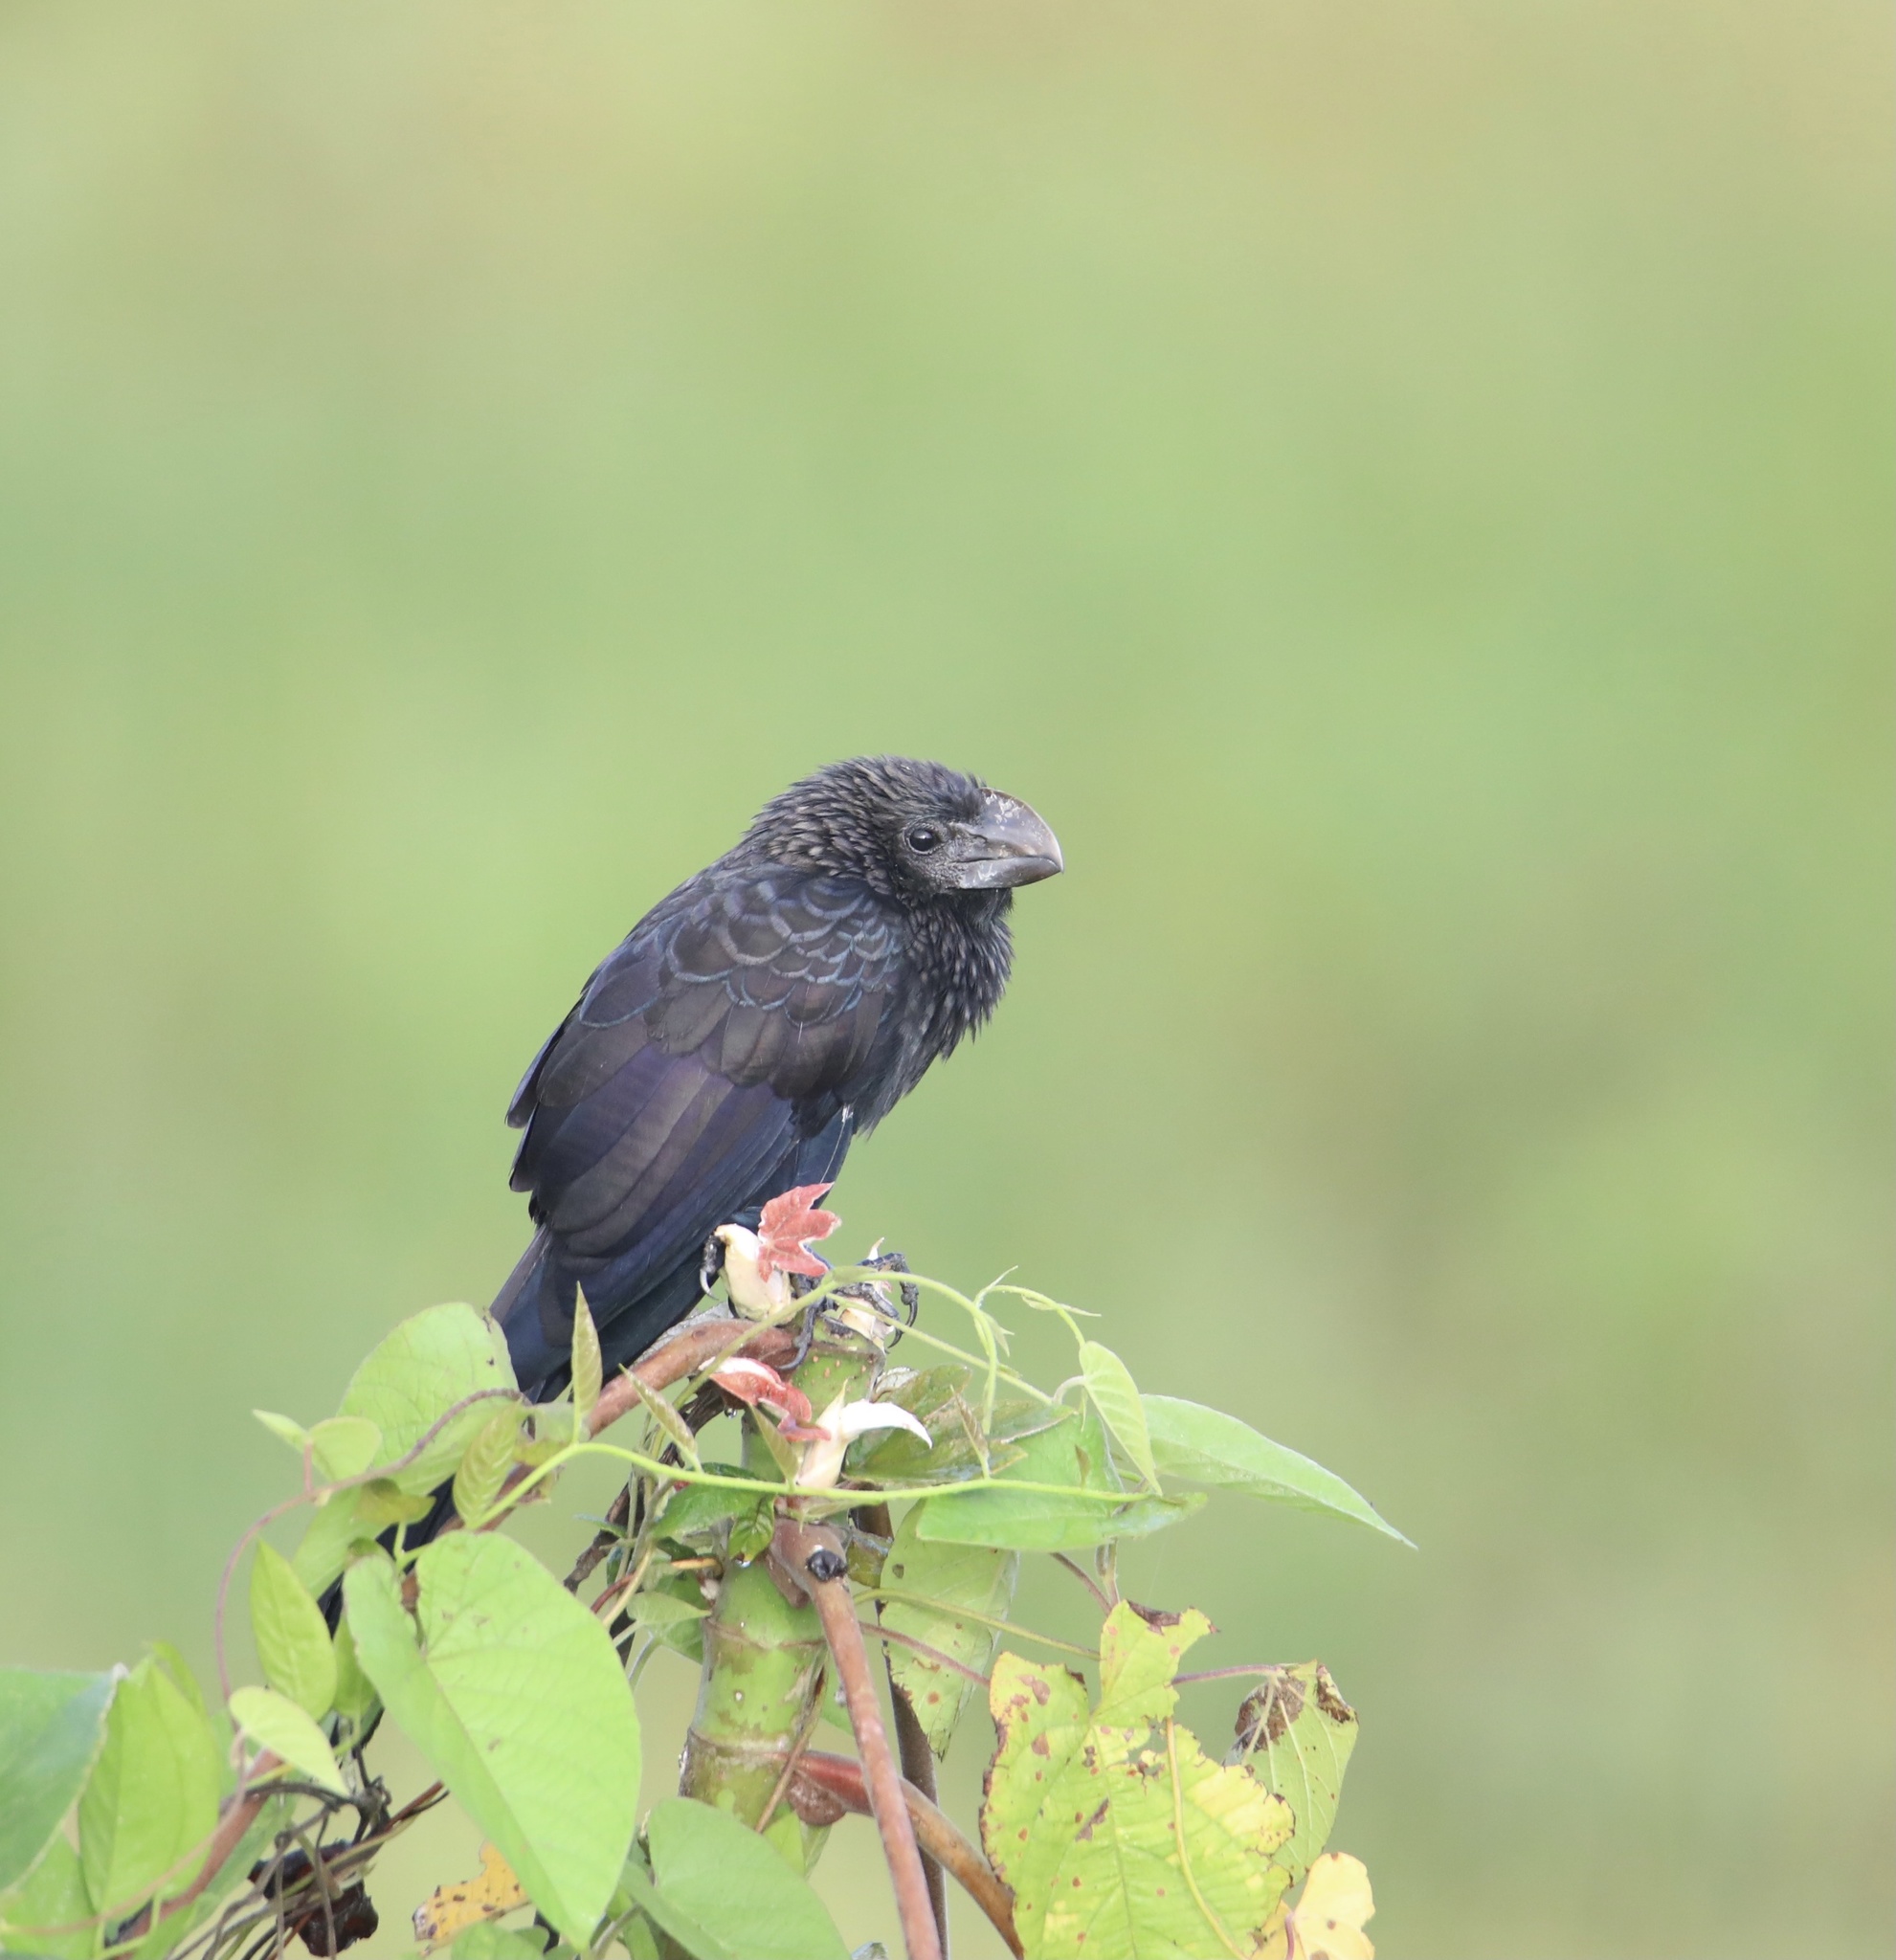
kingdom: Animalia
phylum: Chordata
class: Aves
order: Cuculiformes
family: Cuculidae
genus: Crotophaga
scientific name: Crotophaga ani
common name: Smooth-billed ani
